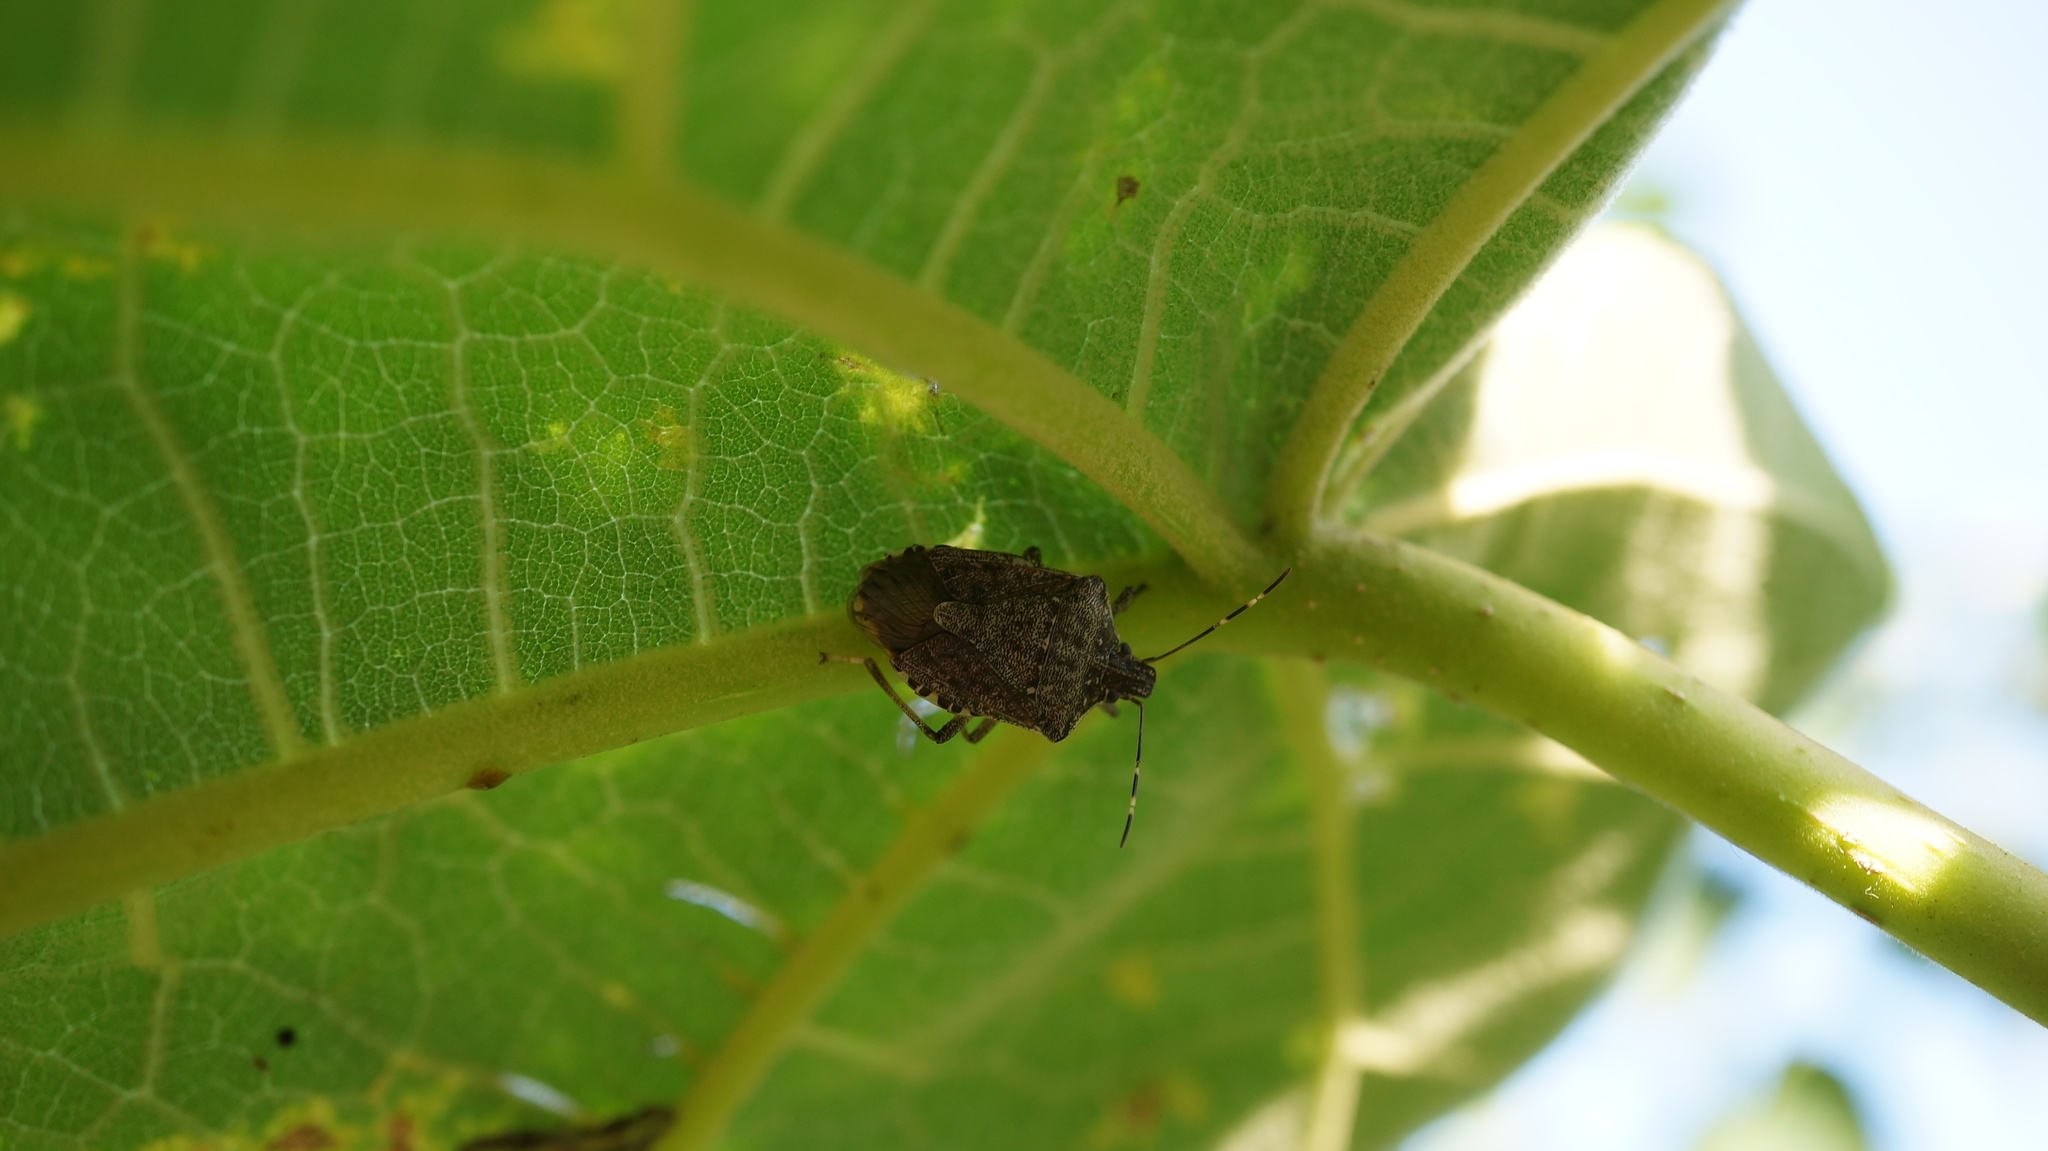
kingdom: Animalia
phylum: Arthropoda
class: Insecta
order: Hemiptera
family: Pentatomidae
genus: Halyomorpha
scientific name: Halyomorpha halys
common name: Brown marmorated stink bug
